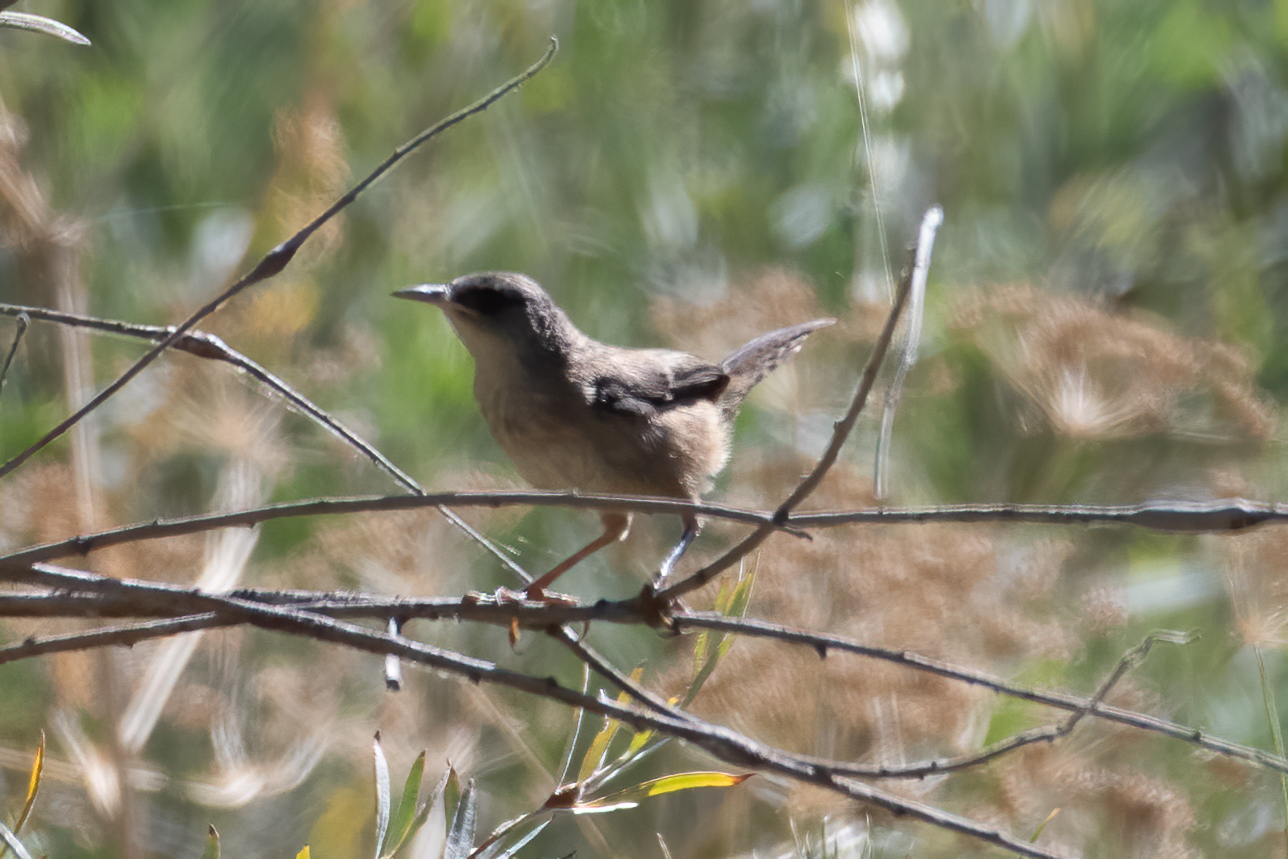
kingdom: Animalia
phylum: Chordata
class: Aves
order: Passeriformes
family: Troglodytidae
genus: Cistothorus
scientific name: Cistothorus palustris
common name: Marsh wren
